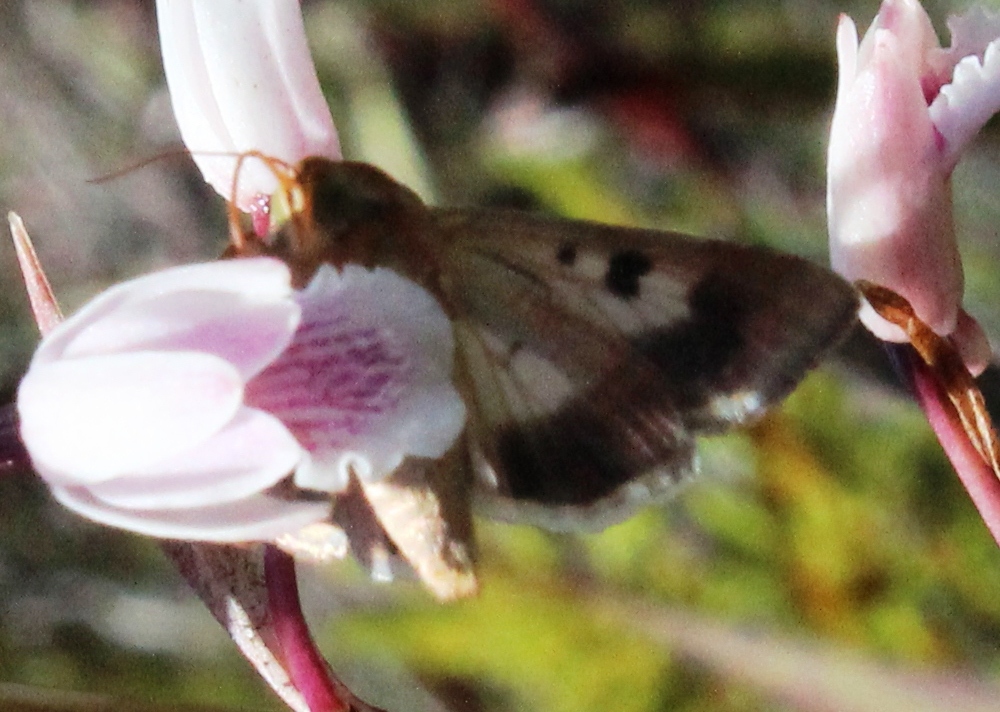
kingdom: Animalia
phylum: Arthropoda
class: Insecta
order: Lepidoptera
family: Noctuidae
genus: Helicoverpa
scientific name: Helicoverpa armigera
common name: Cotton bollworm
